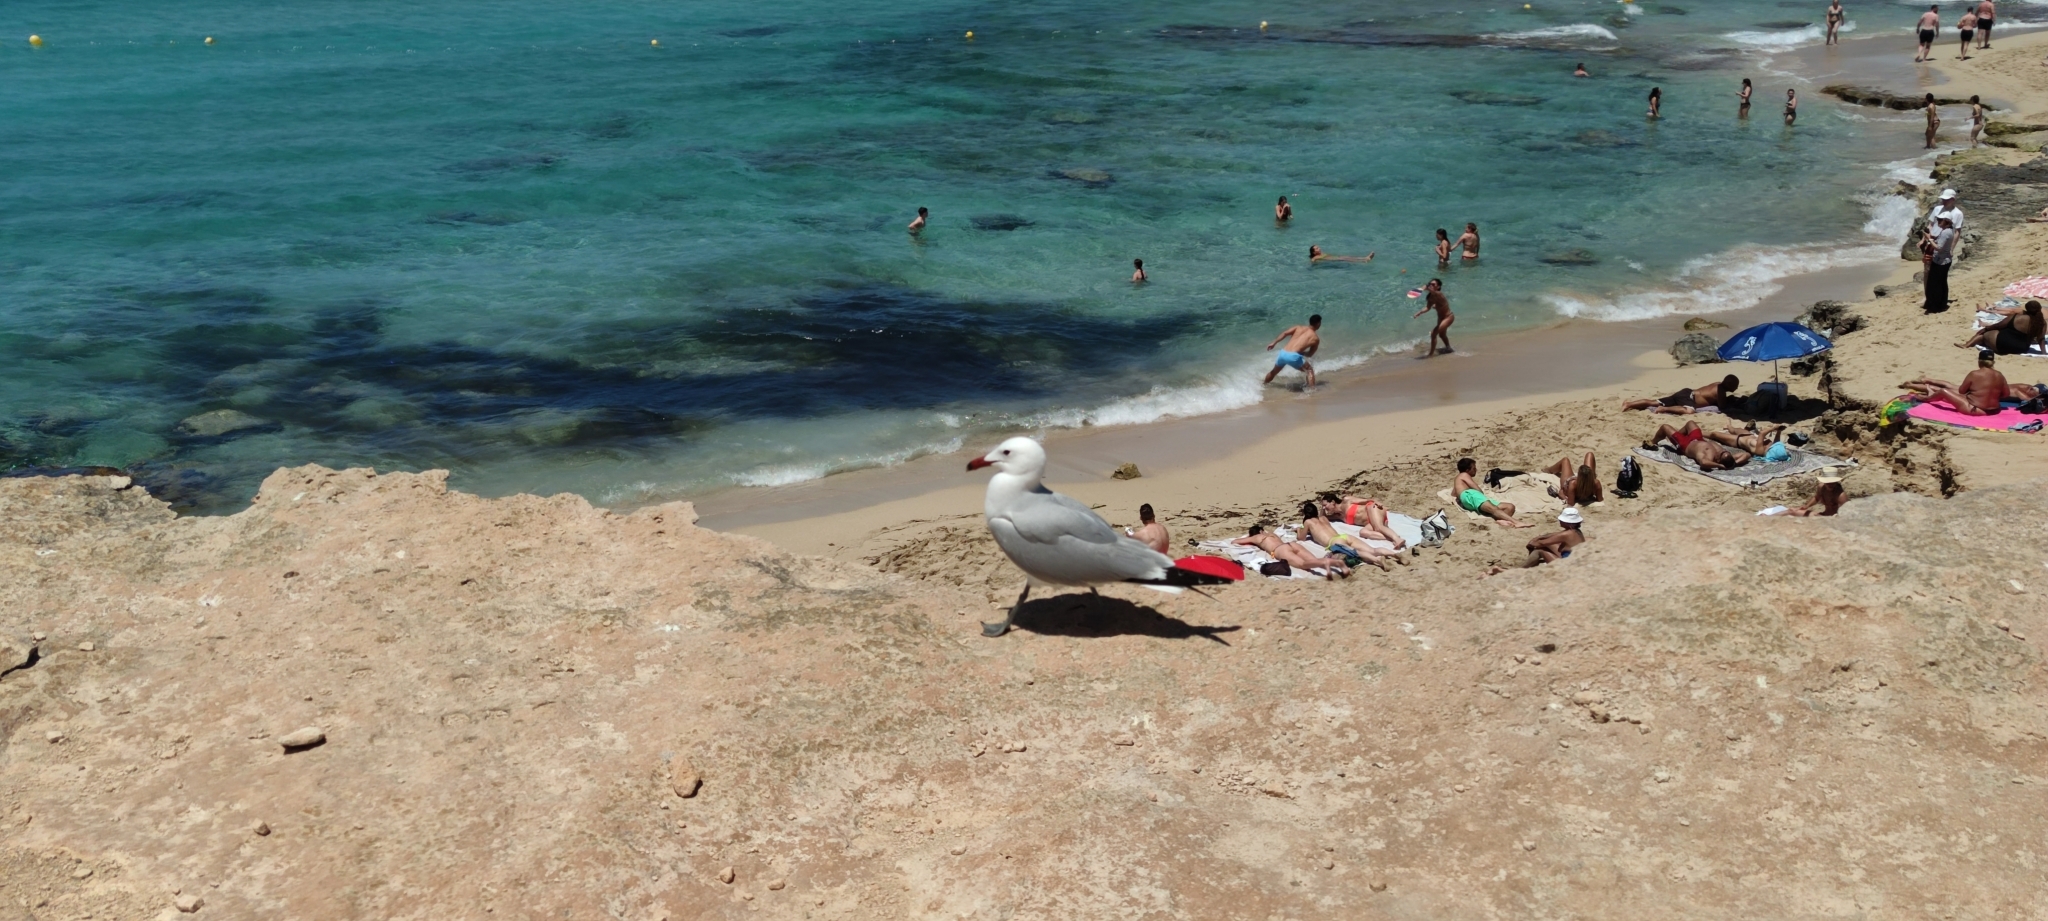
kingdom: Animalia
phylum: Chordata
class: Aves
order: Charadriiformes
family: Laridae
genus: Ichthyaetus
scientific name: Ichthyaetus audouinii
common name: Audouin's gull
